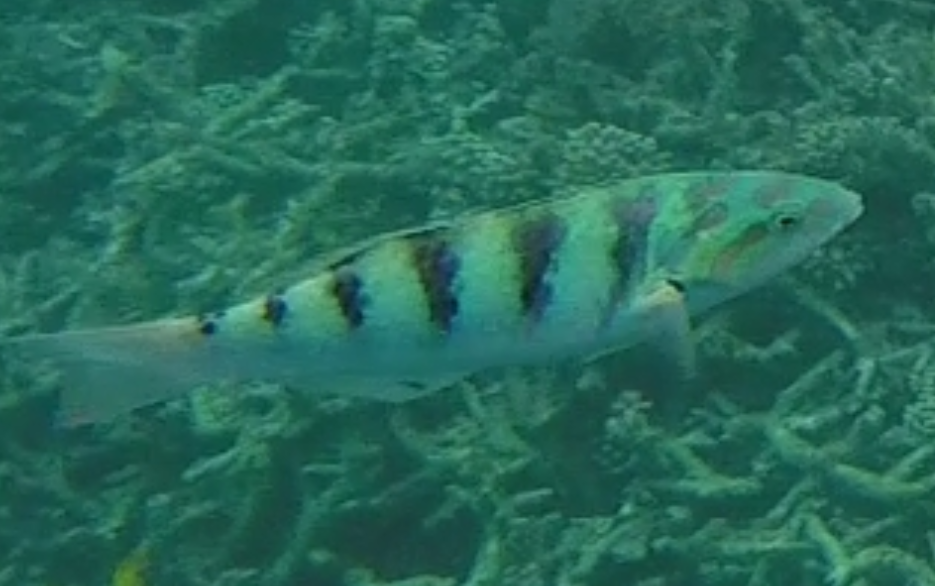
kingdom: Animalia
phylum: Chordata
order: Perciformes
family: Labridae
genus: Thalassoma
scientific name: Thalassoma hardwicke
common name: Sixbar wrasse
